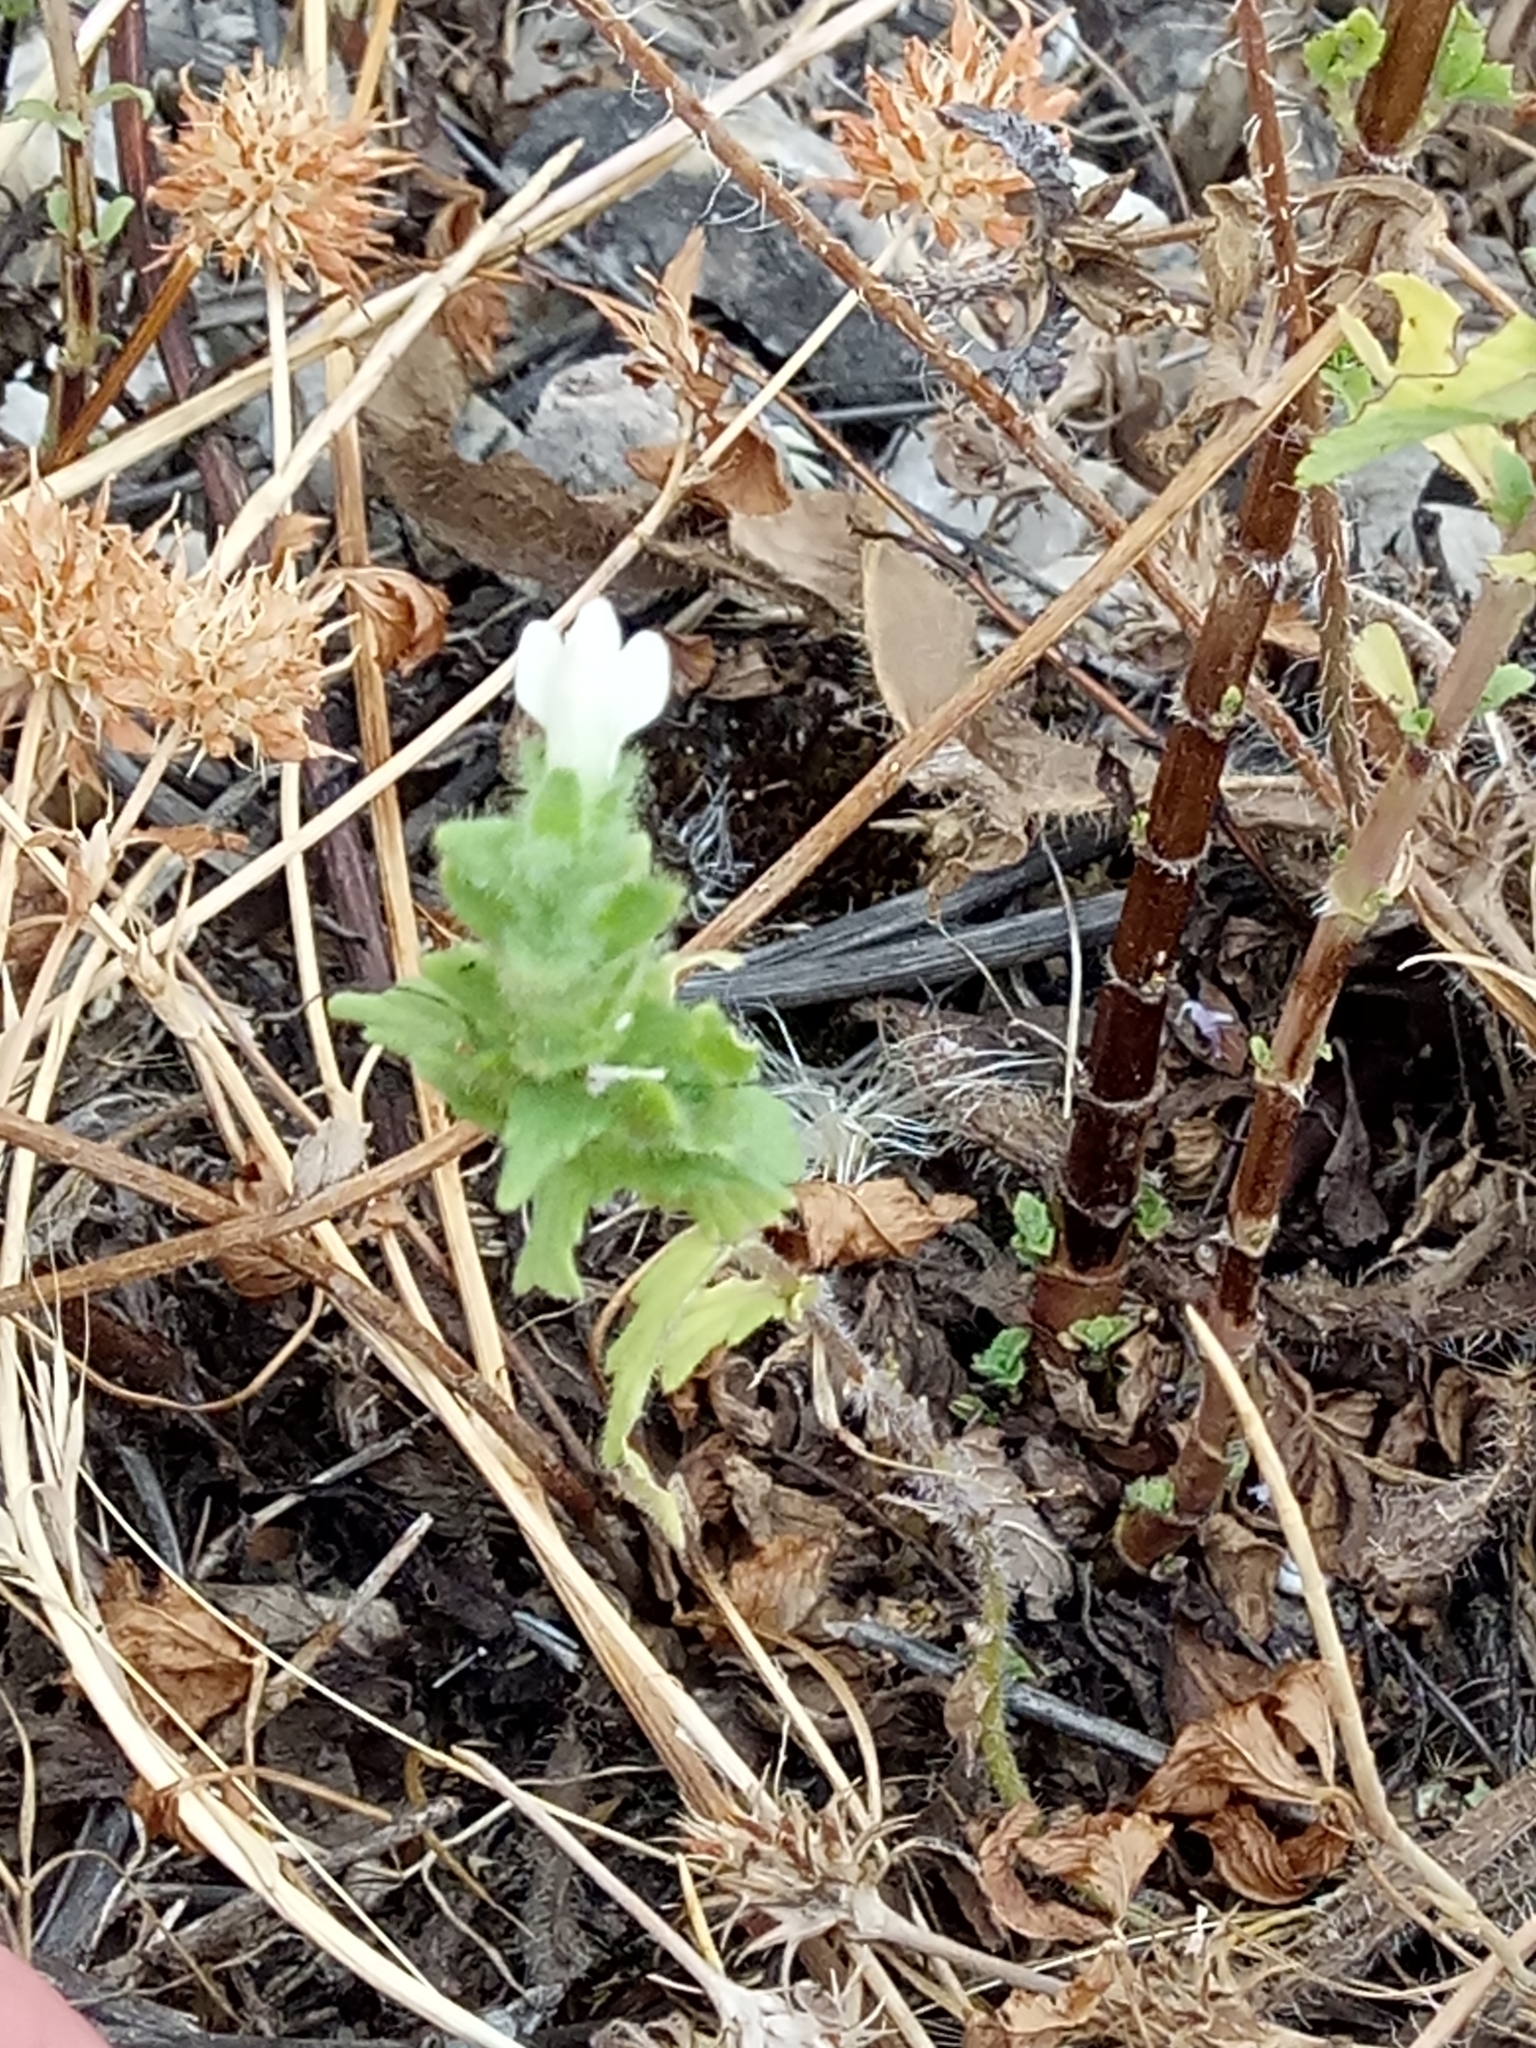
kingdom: Plantae
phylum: Tracheophyta
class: Magnoliopsida
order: Lamiales
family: Orobanchaceae
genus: Bellardia
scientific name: Bellardia trixago
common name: Mediterranean lineseed
